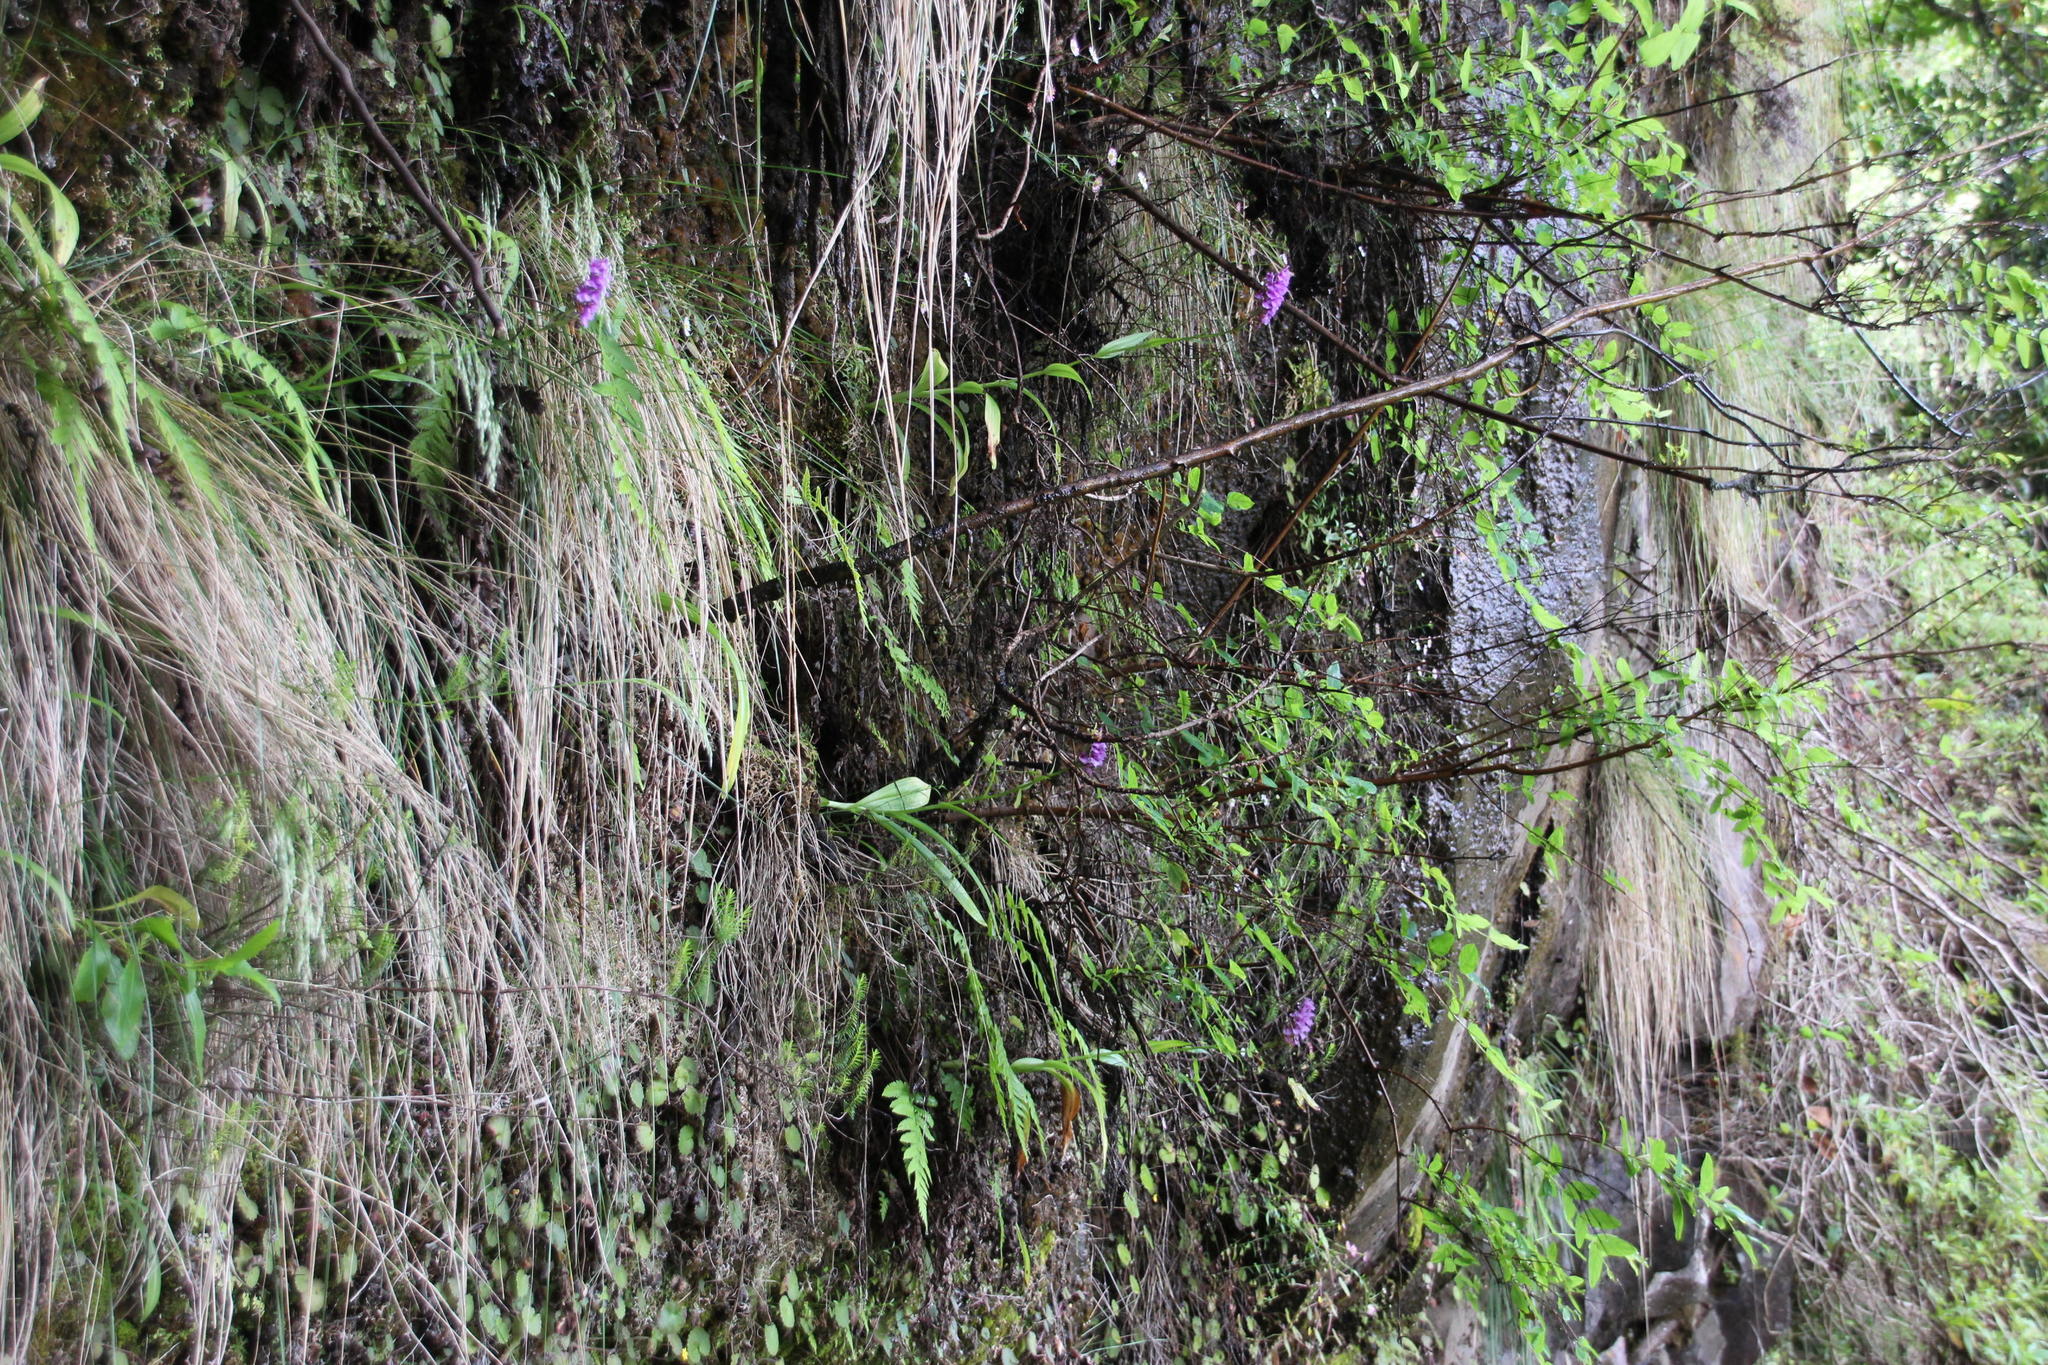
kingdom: Plantae
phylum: Tracheophyta
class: Liliopsida
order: Asparagales
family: Orchidaceae
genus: Dactylorhiza
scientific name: Dactylorhiza foliosa
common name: Richly-leaved dactylorhiza
